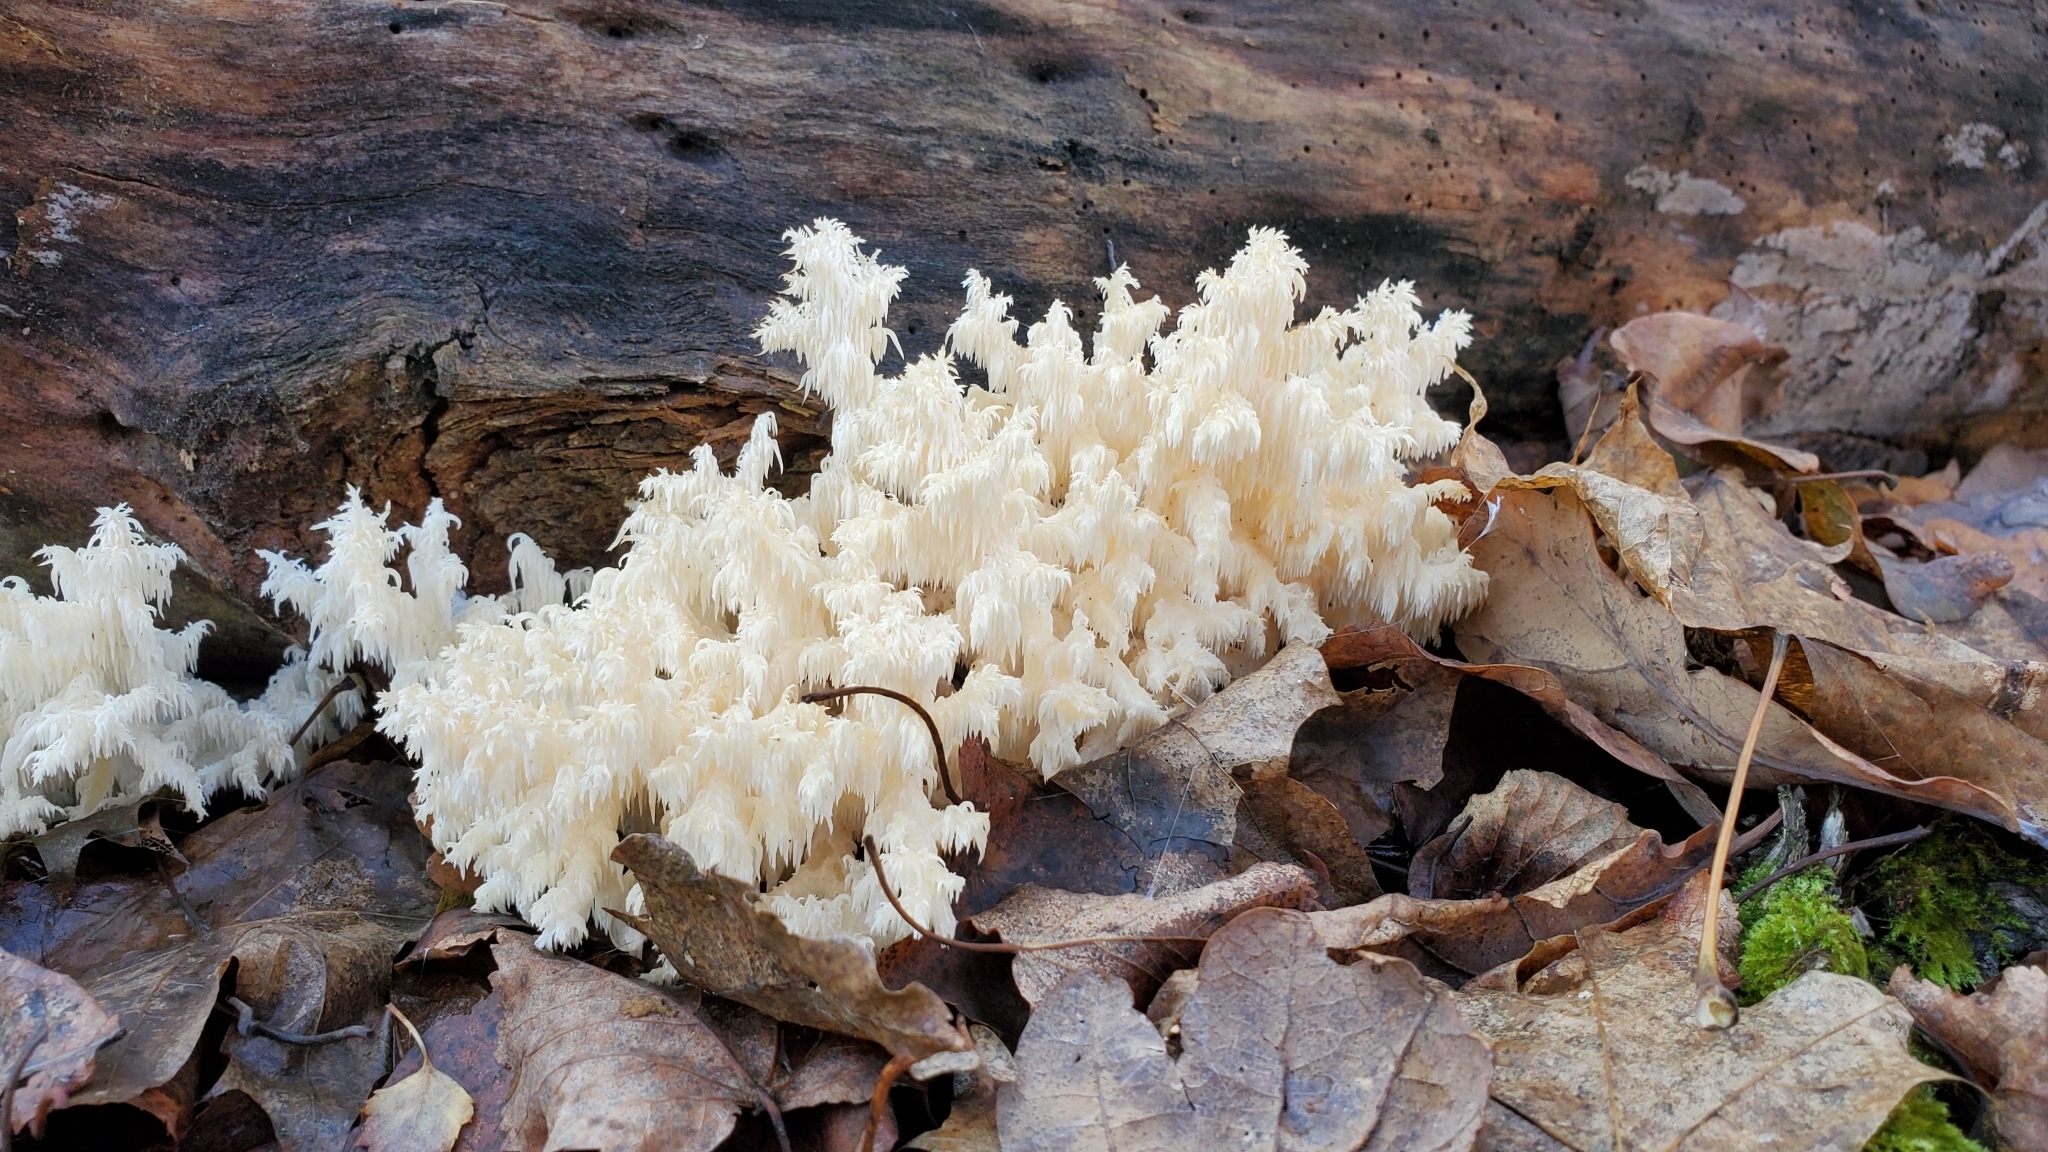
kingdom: Fungi
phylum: Basidiomycota
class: Agaricomycetes
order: Russulales
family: Hericiaceae
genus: Hericium
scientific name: Hericium coralloides
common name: Coral tooth
